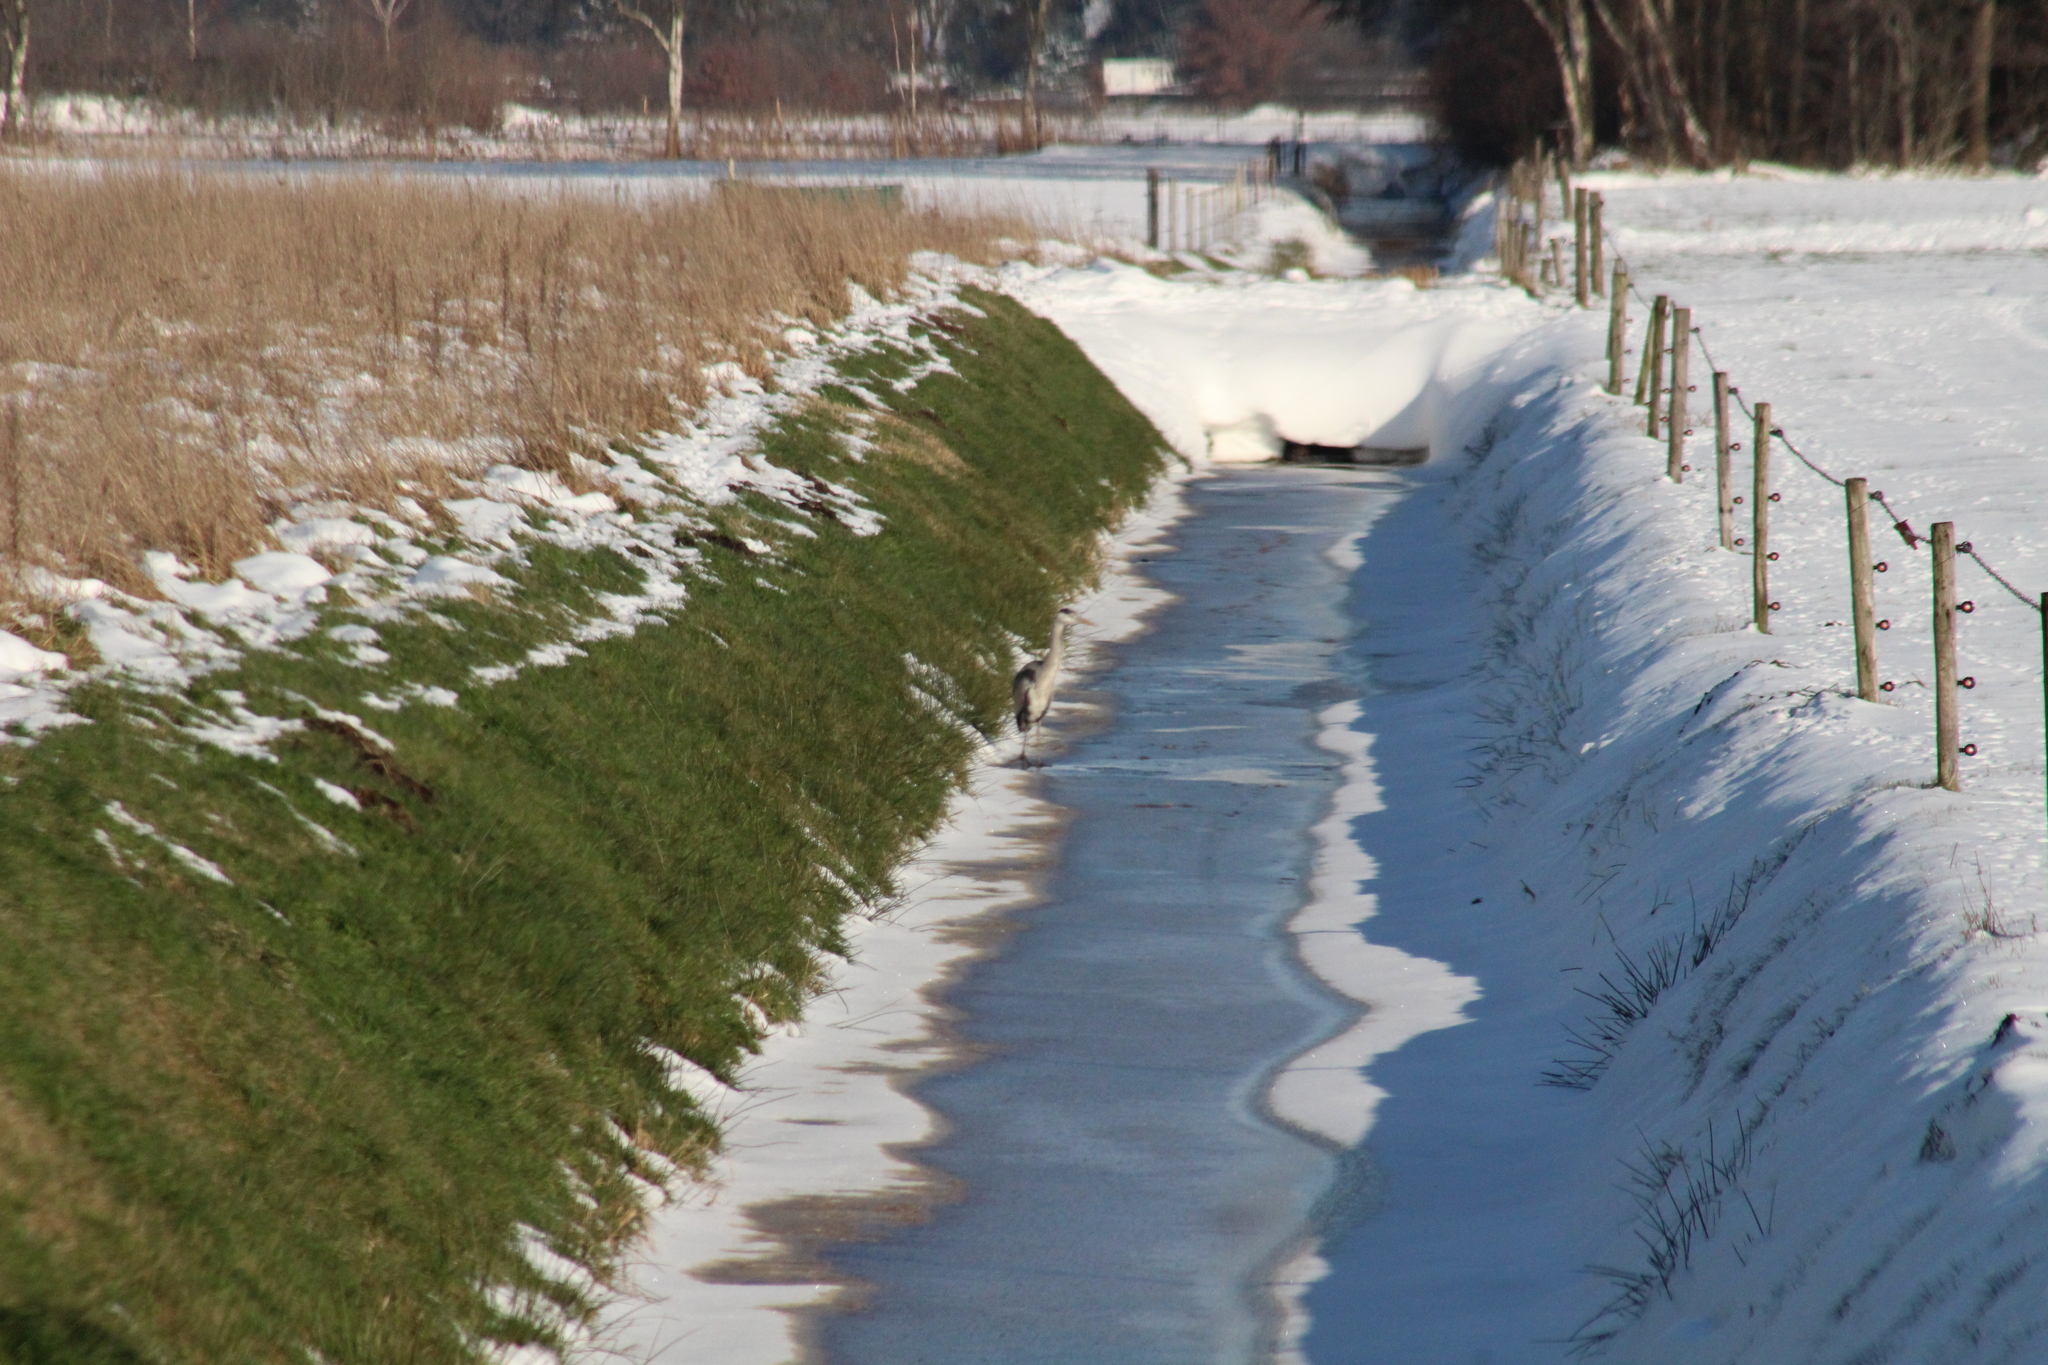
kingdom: Animalia
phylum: Chordata
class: Aves
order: Pelecaniformes
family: Ardeidae
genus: Ardea
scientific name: Ardea cinerea
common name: Grey heron
